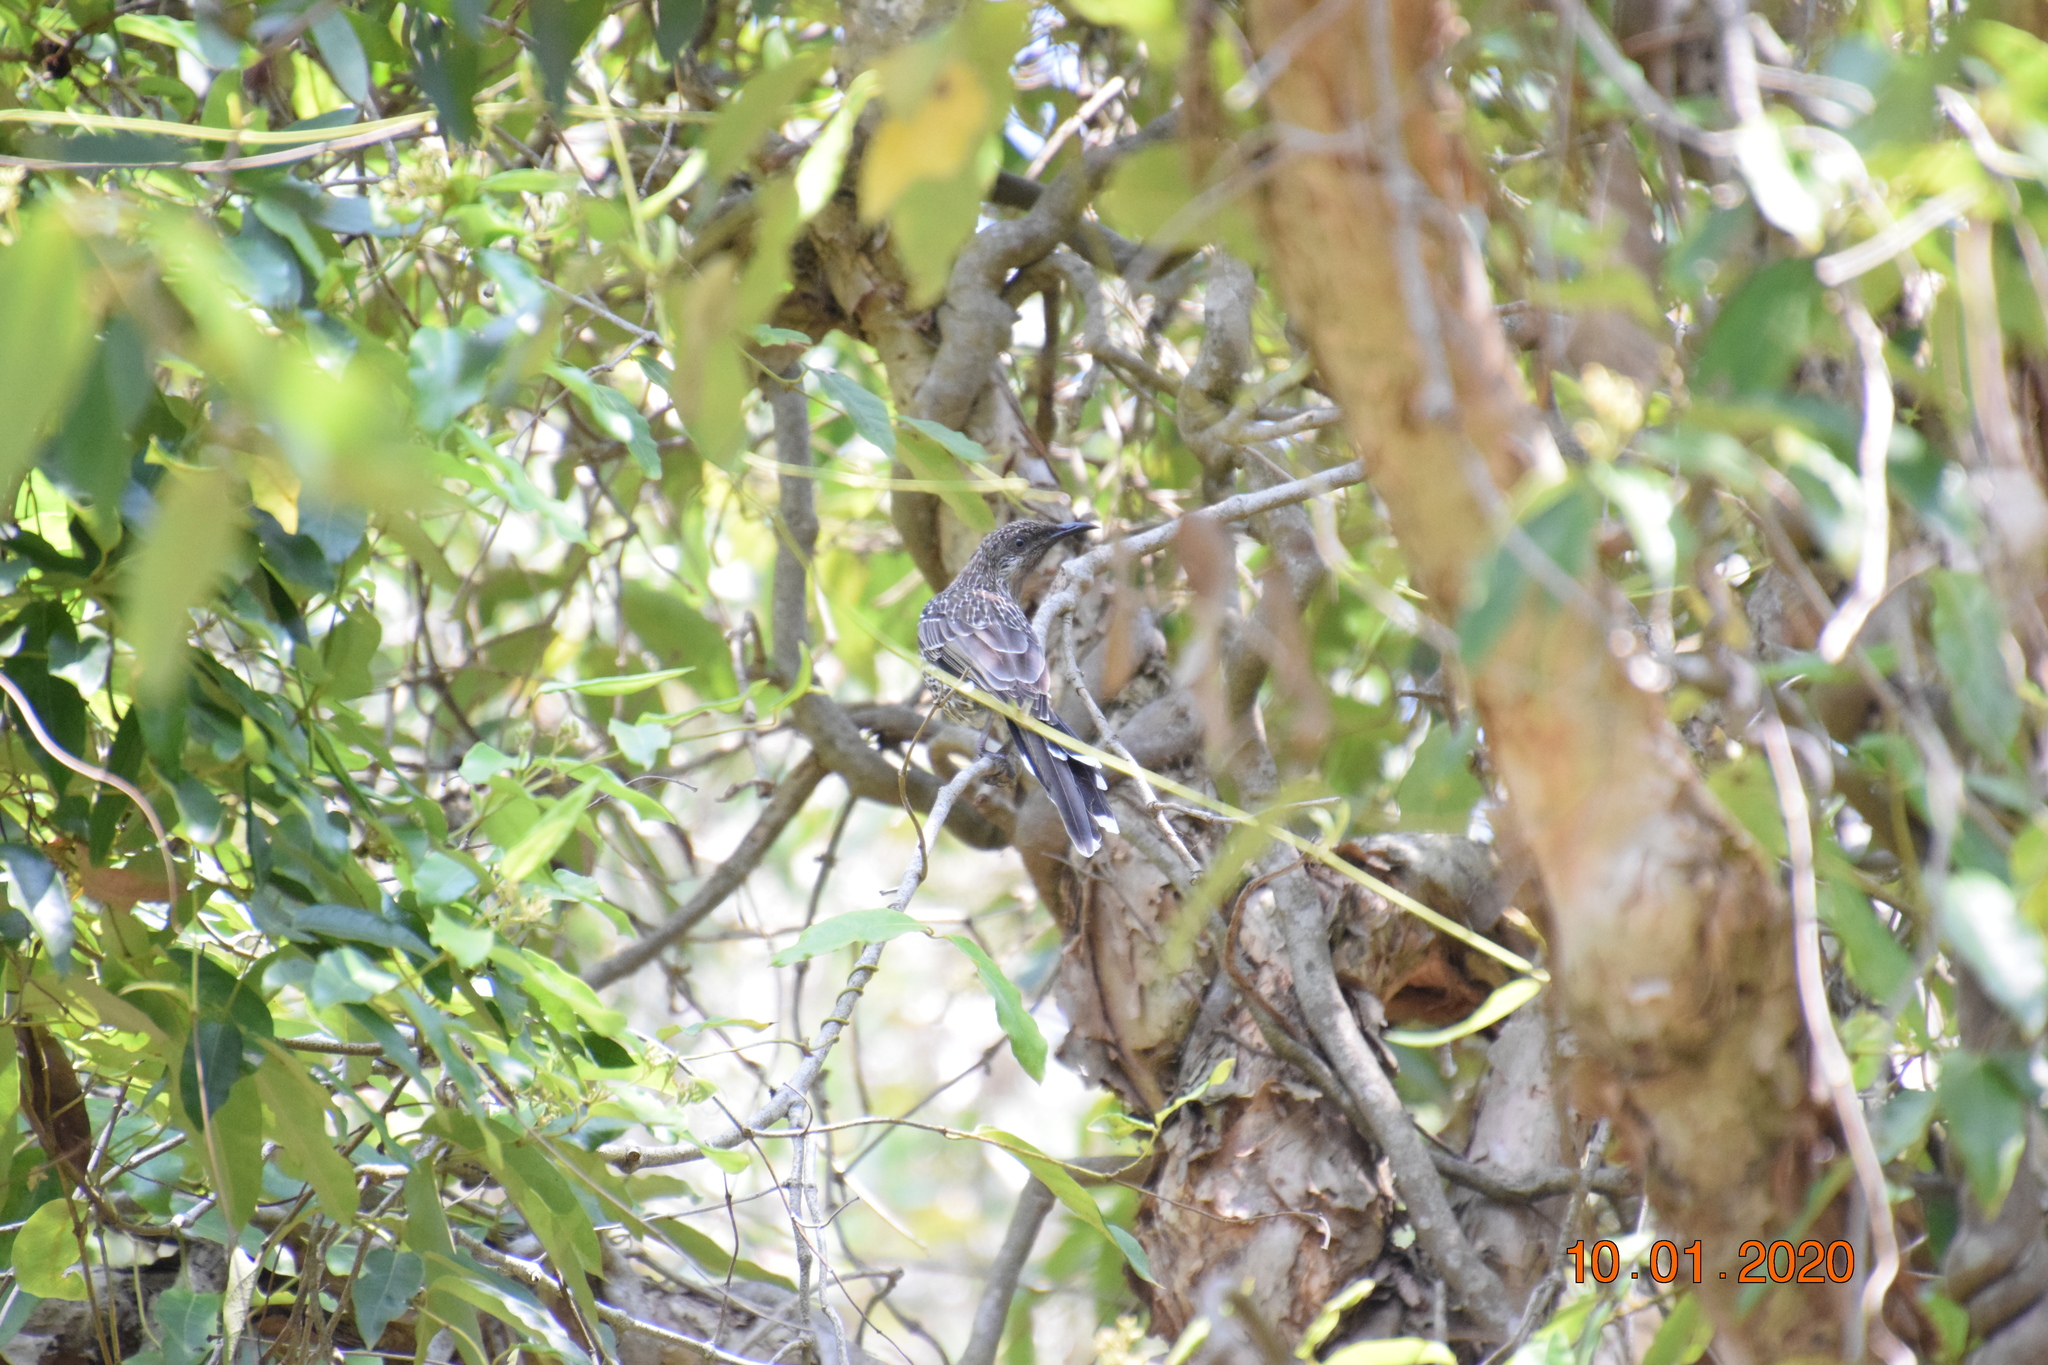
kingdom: Animalia
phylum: Chordata
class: Aves
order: Passeriformes
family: Meliphagidae
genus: Anthochaera
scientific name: Anthochaera chrysoptera
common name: Little wattlebird
